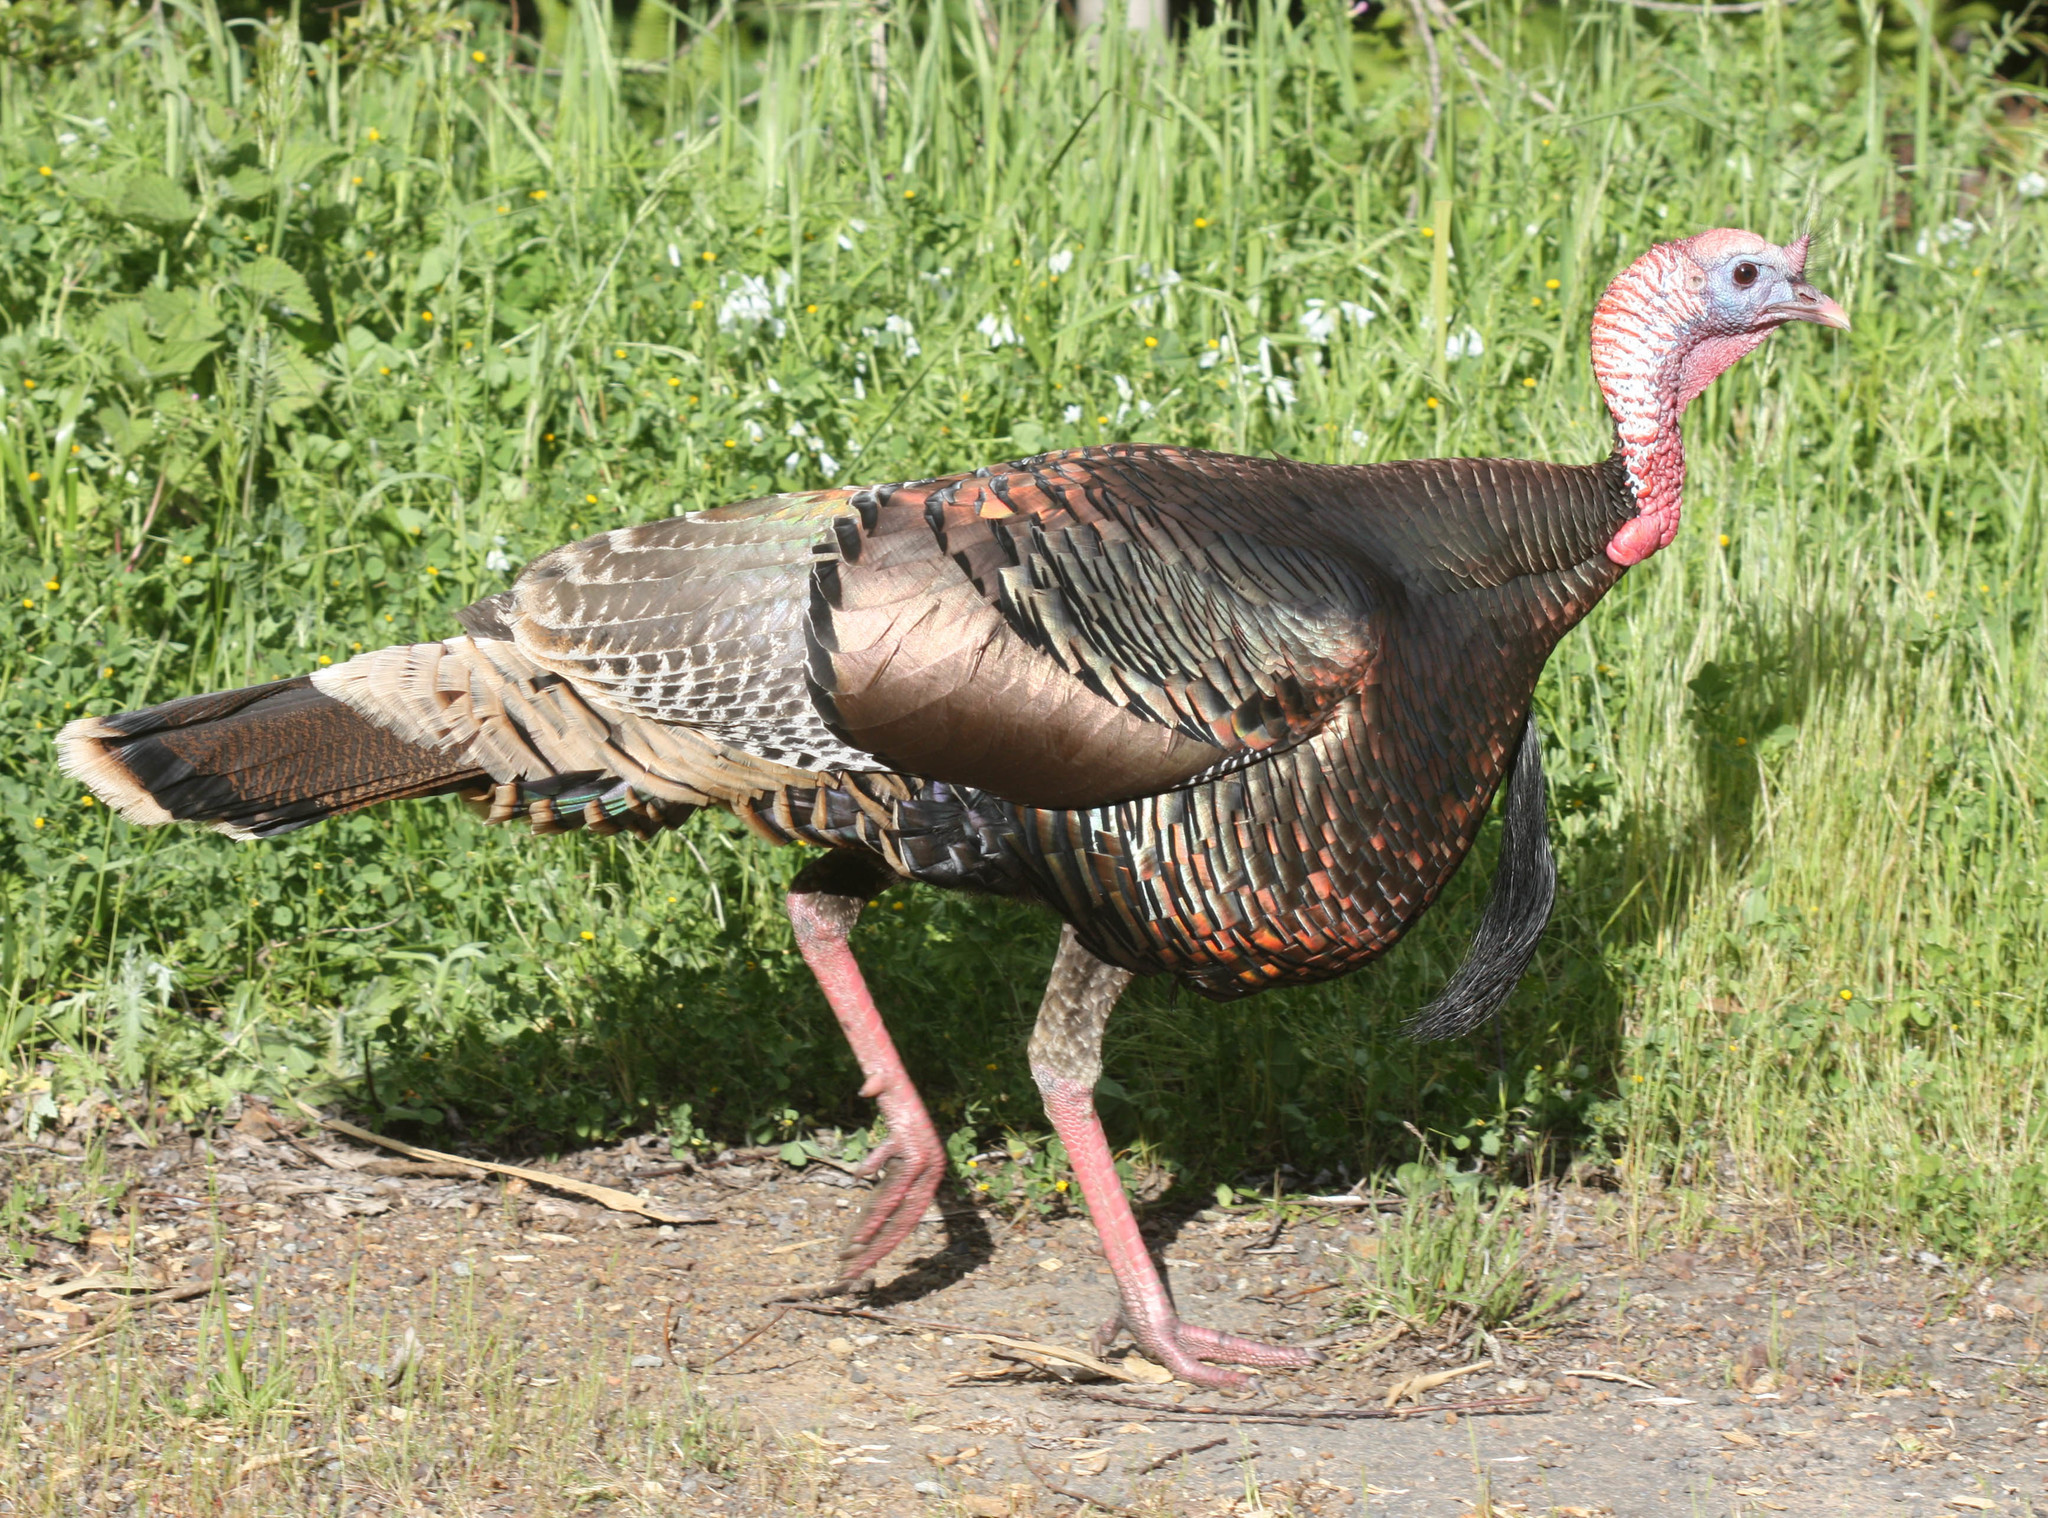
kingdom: Animalia
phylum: Chordata
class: Aves
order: Galliformes
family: Phasianidae
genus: Meleagris
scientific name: Meleagris gallopavo
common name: Wild turkey
